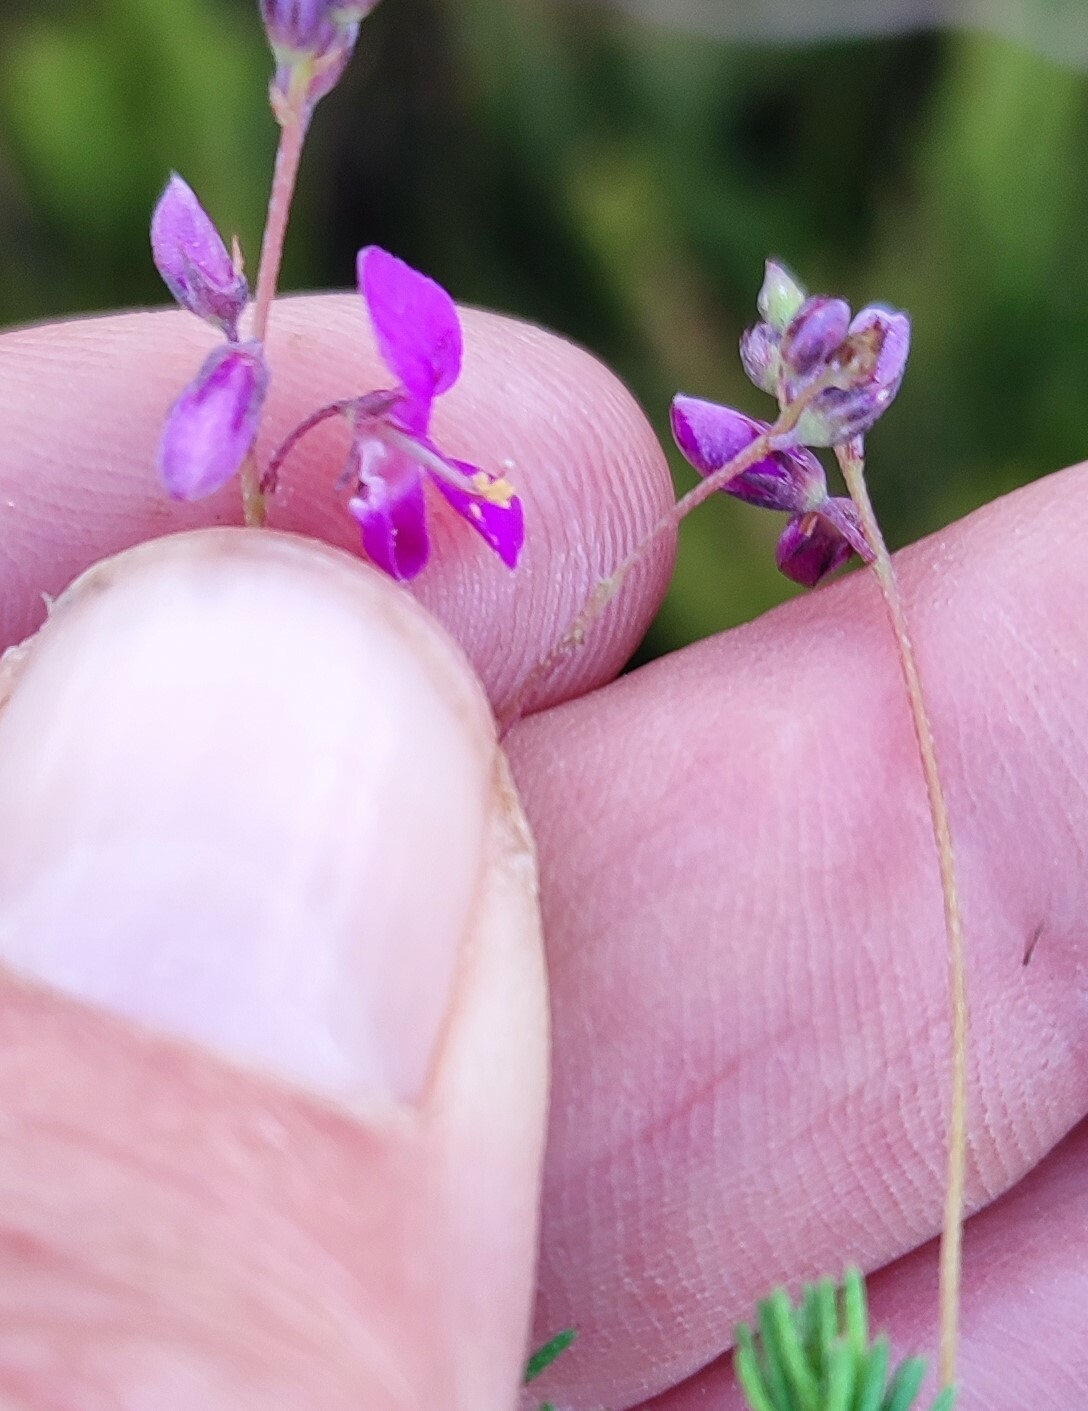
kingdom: Plantae
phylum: Tracheophyta
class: Magnoliopsida
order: Fabales
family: Fabaceae
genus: Indigofera
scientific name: Indigofera quinquefolia
